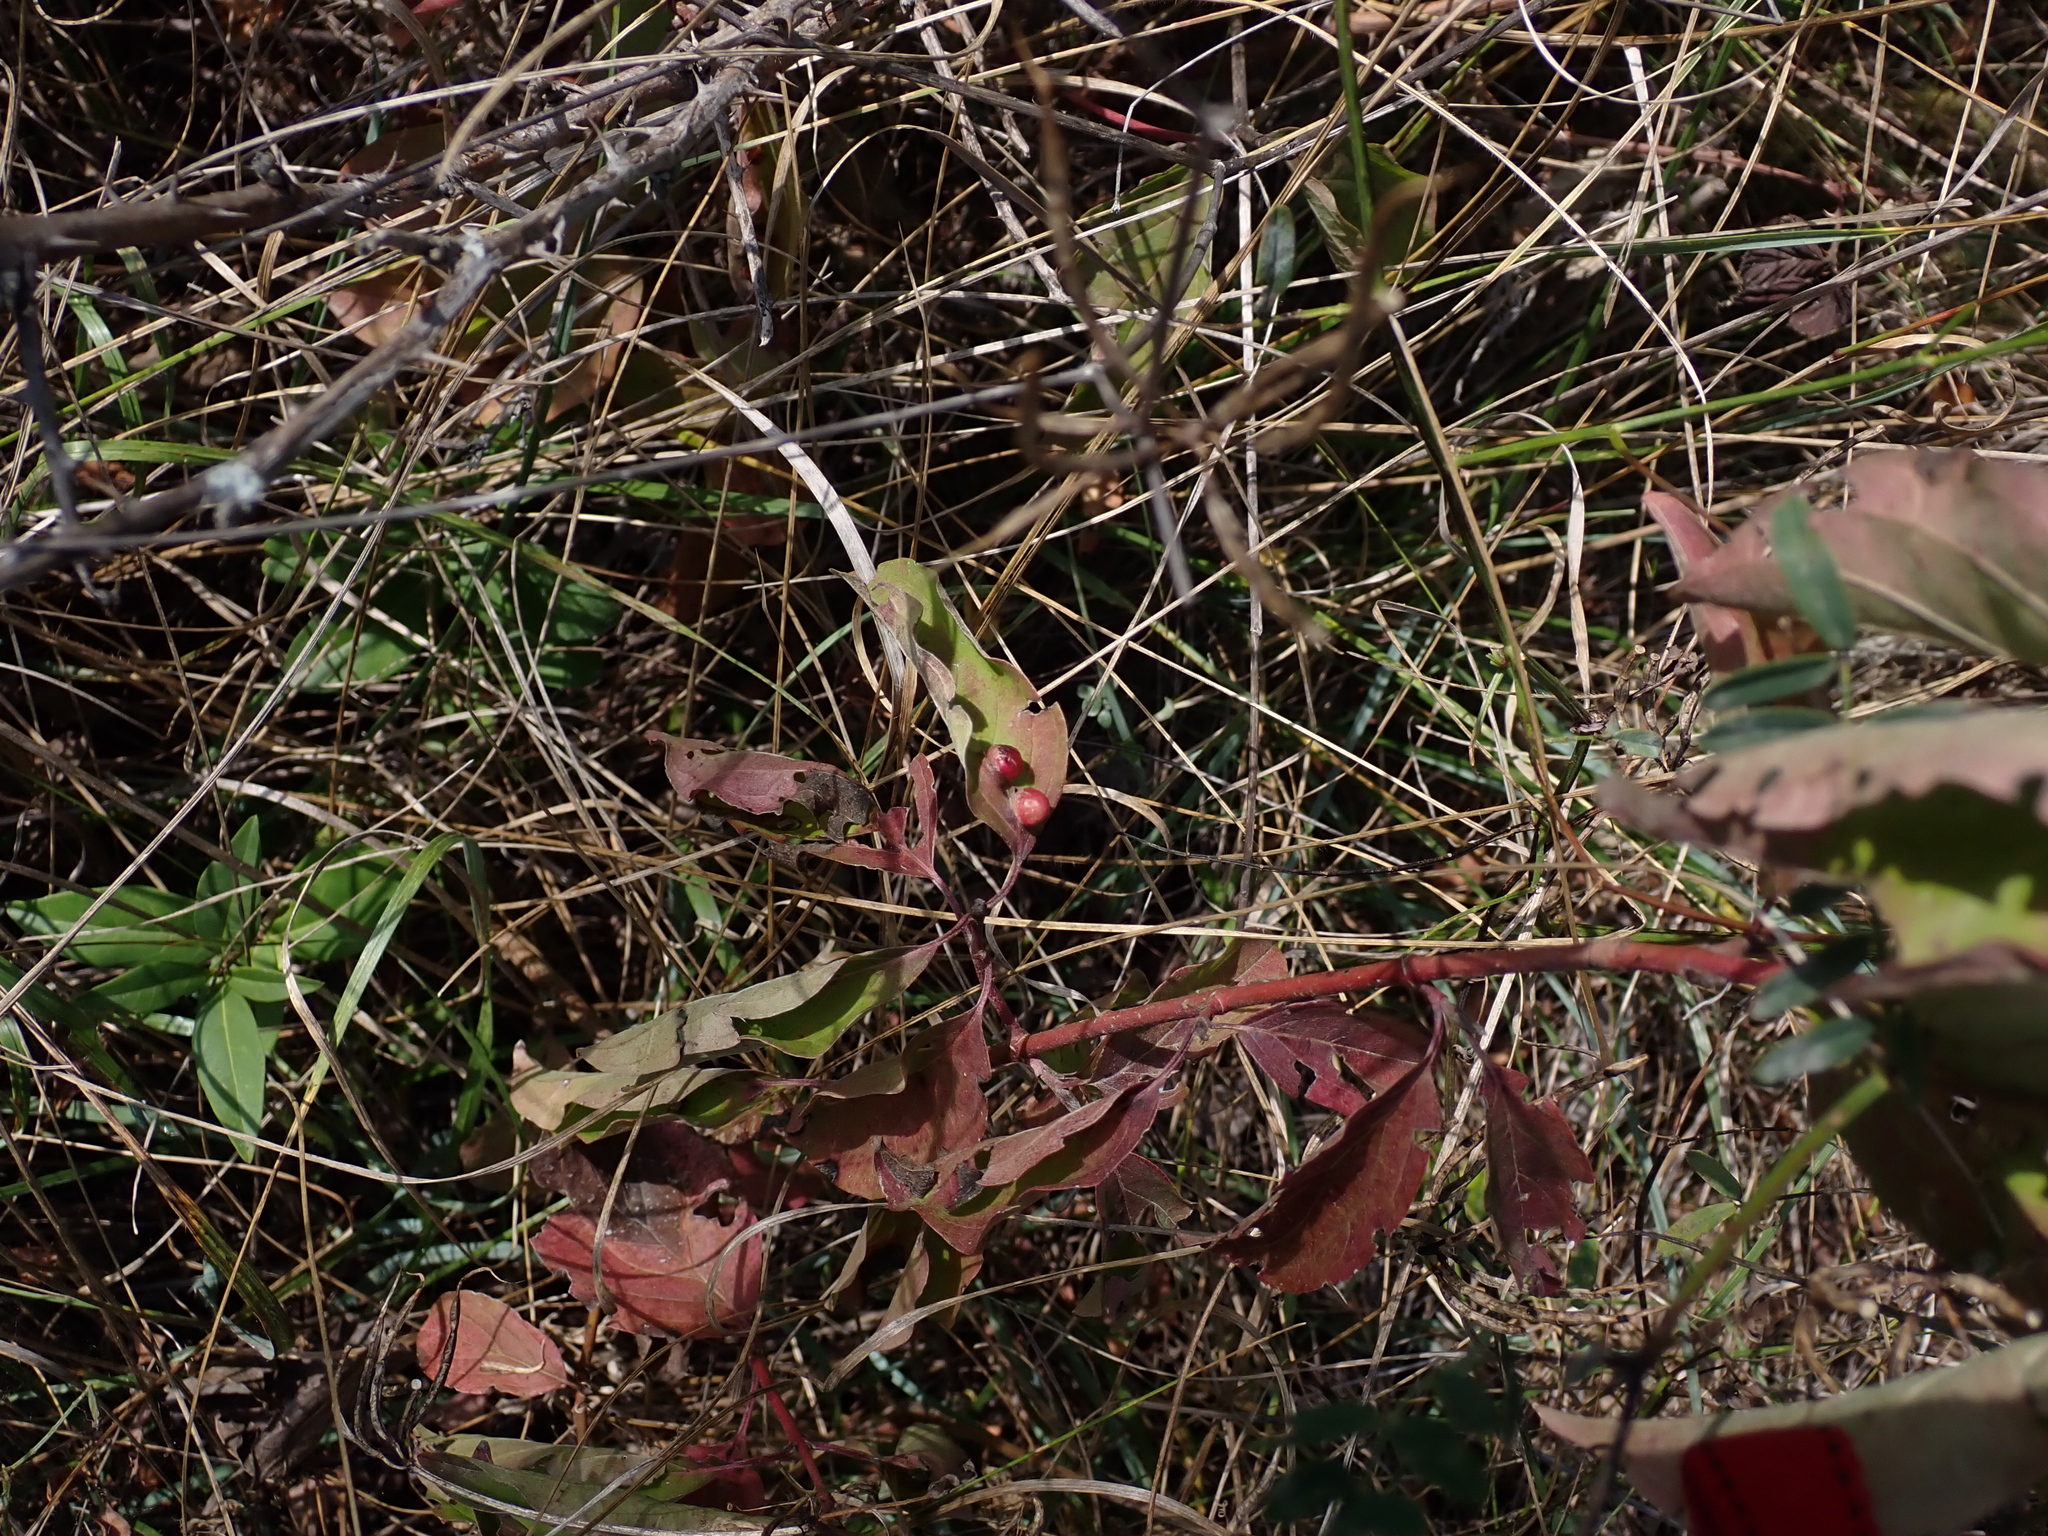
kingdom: Animalia
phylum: Arthropoda
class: Insecta
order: Diptera
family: Cecidomyiidae
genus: Craneiobia
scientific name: Craneiobia corni
